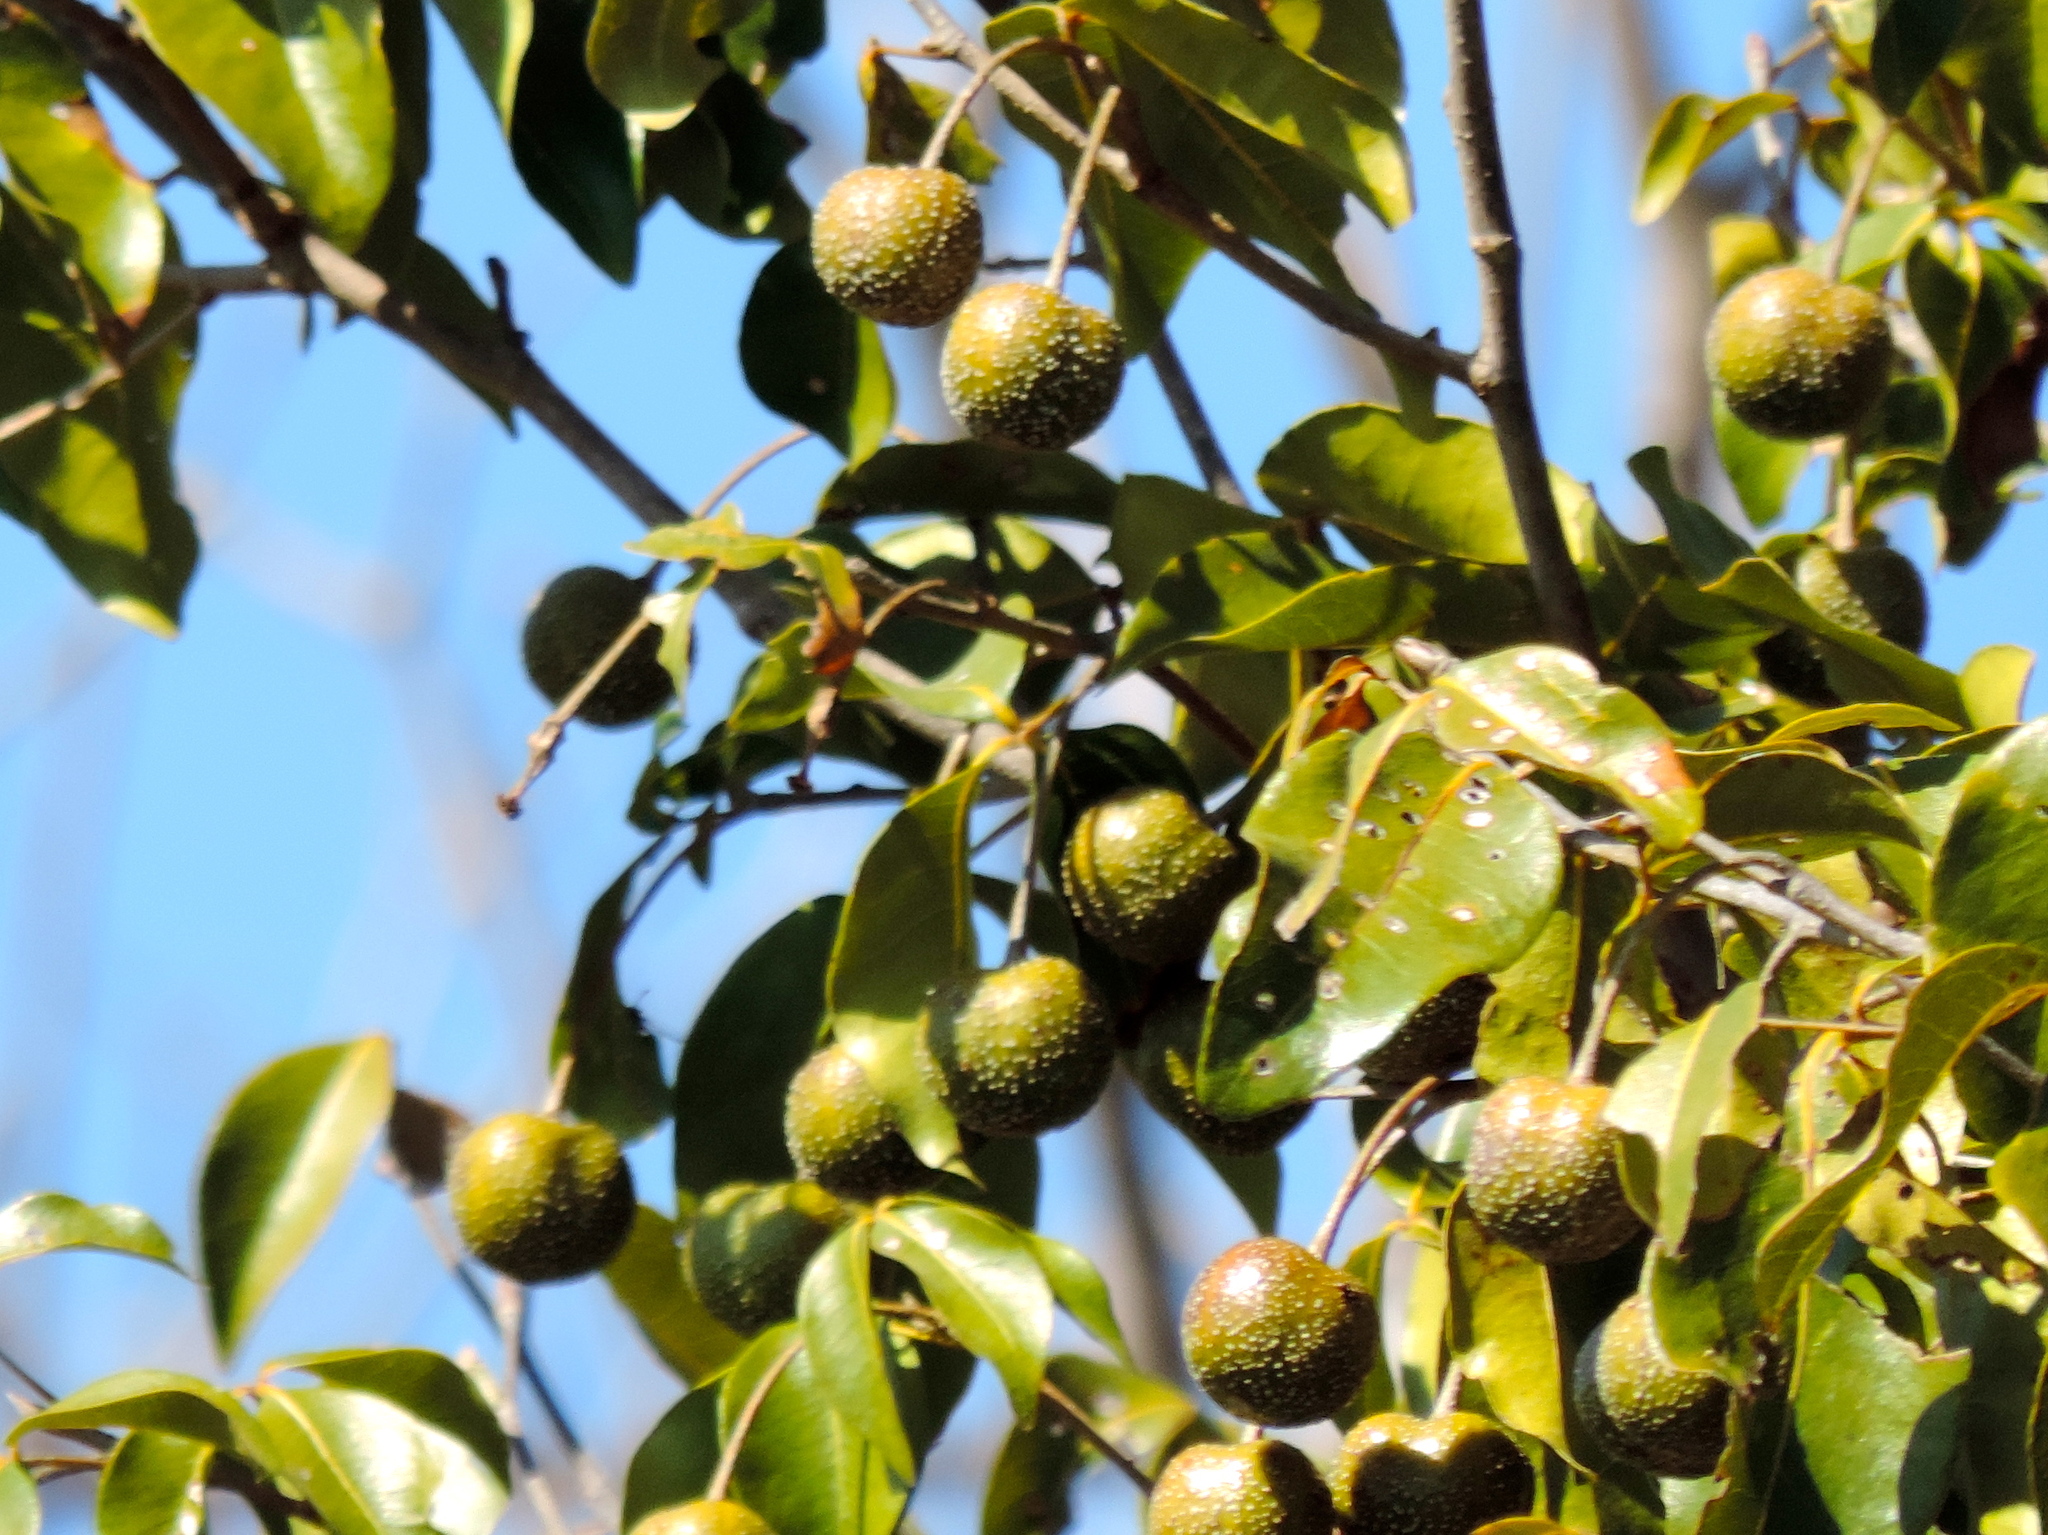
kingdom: Plantae
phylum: Tracheophyta
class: Magnoliopsida
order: Malpighiales
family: Picrodendraceae
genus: Piranhea
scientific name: Piranhea mexicana
